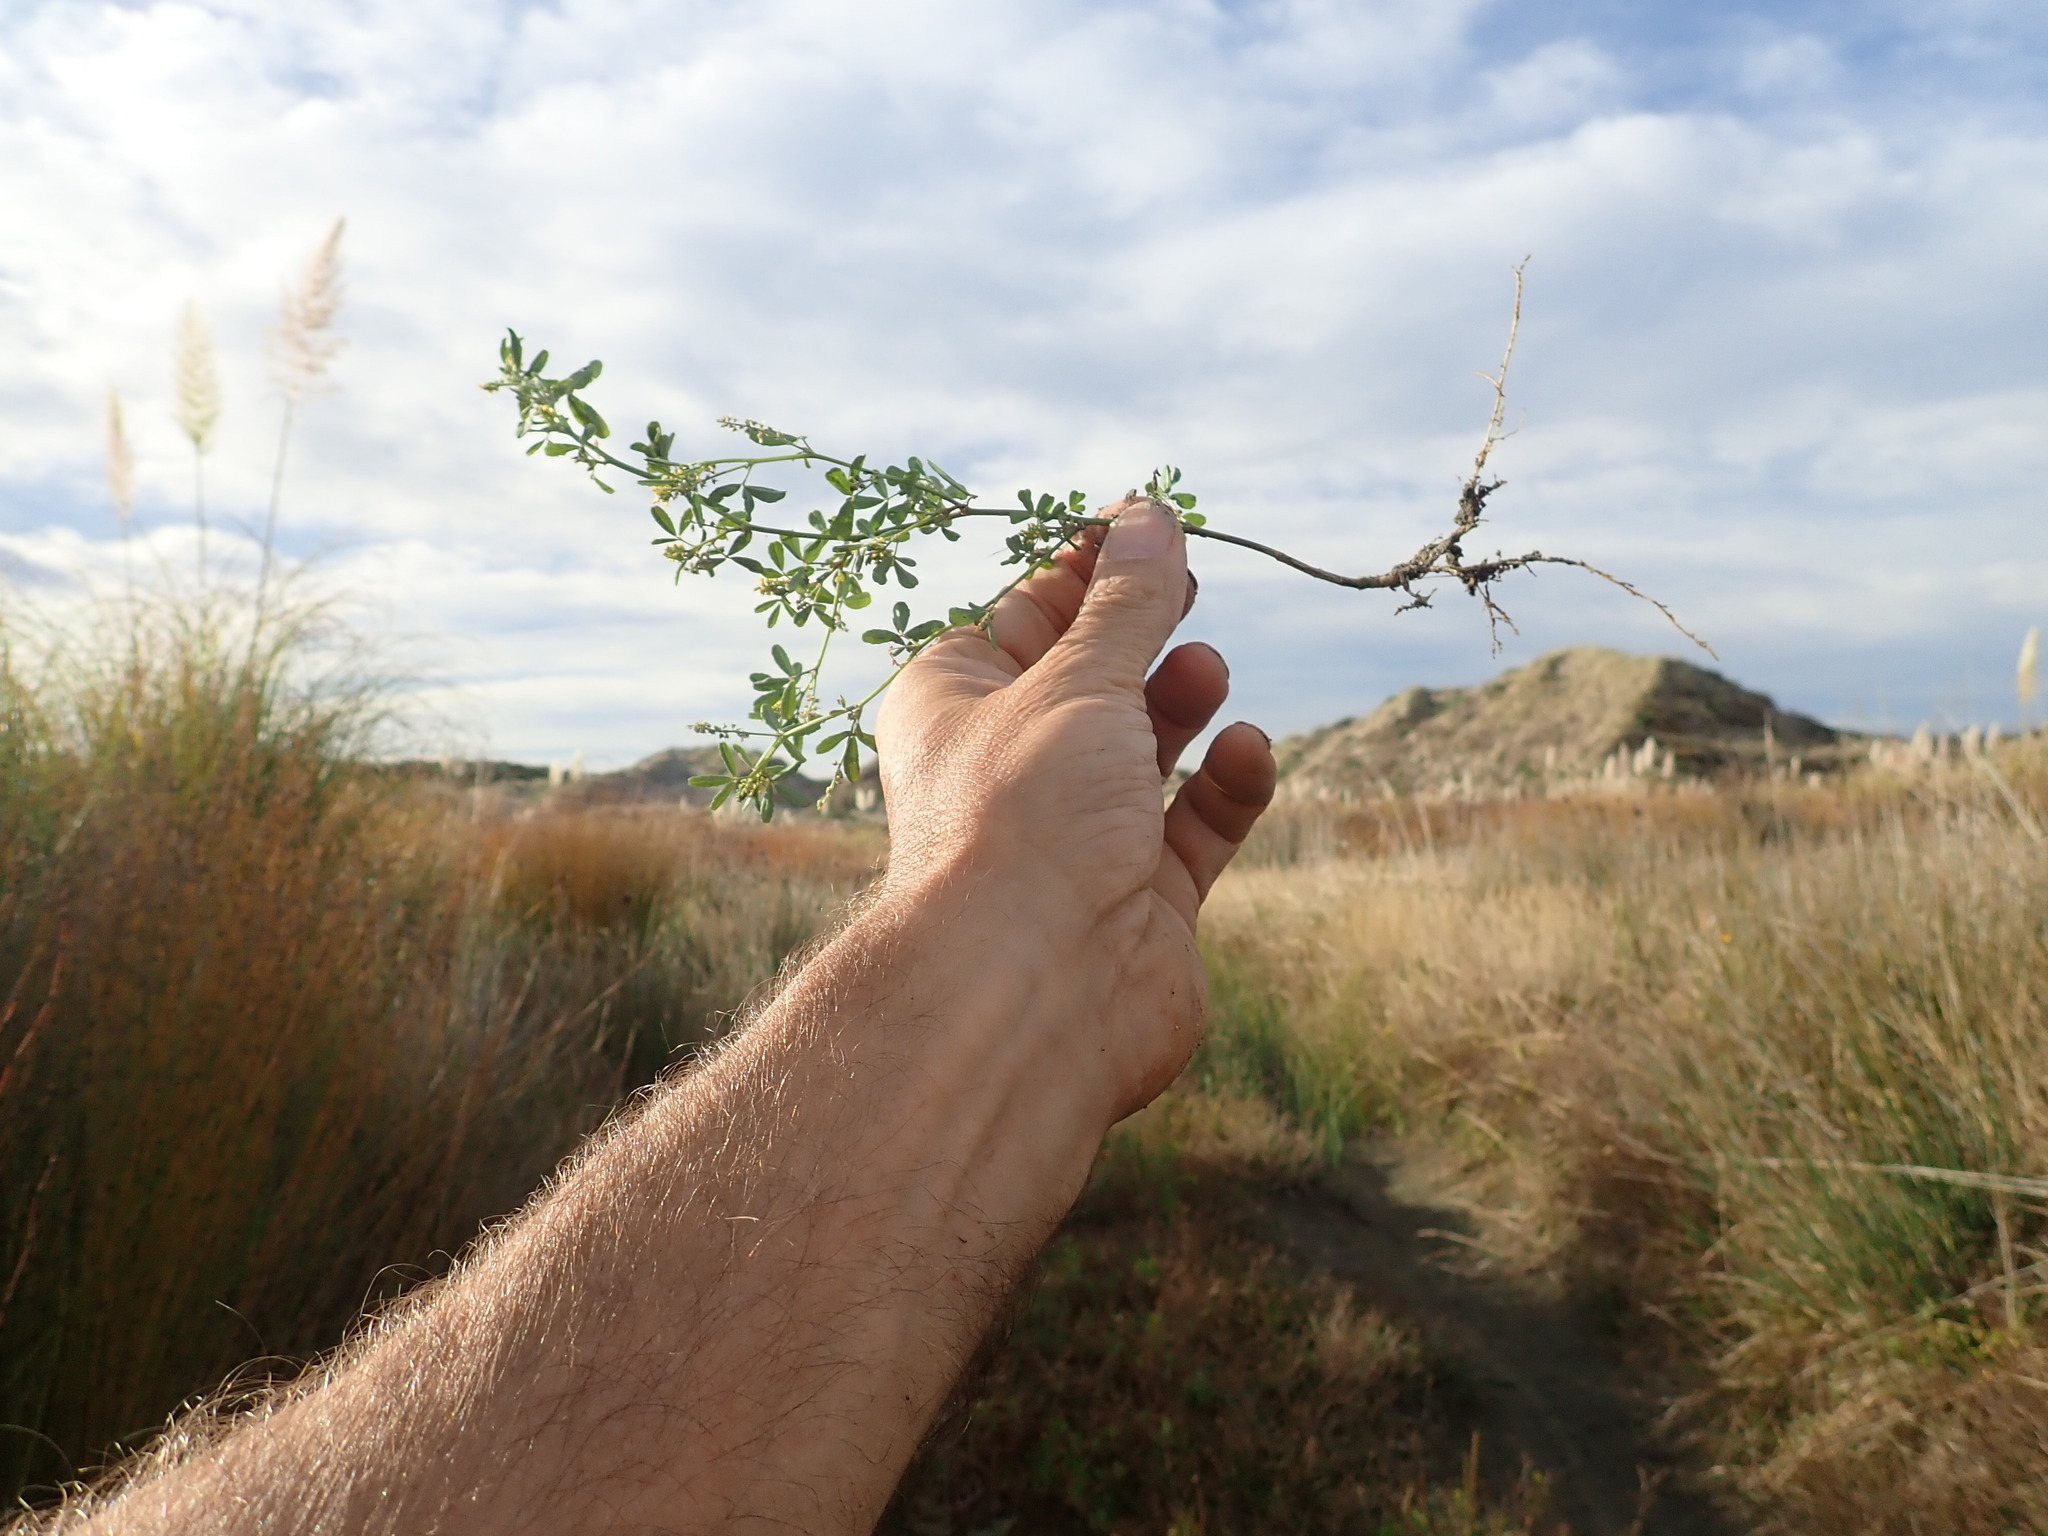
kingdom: Plantae
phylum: Tracheophyta
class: Magnoliopsida
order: Fabales
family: Fabaceae
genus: Melilotus
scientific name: Melilotus indicus
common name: Small melilot
